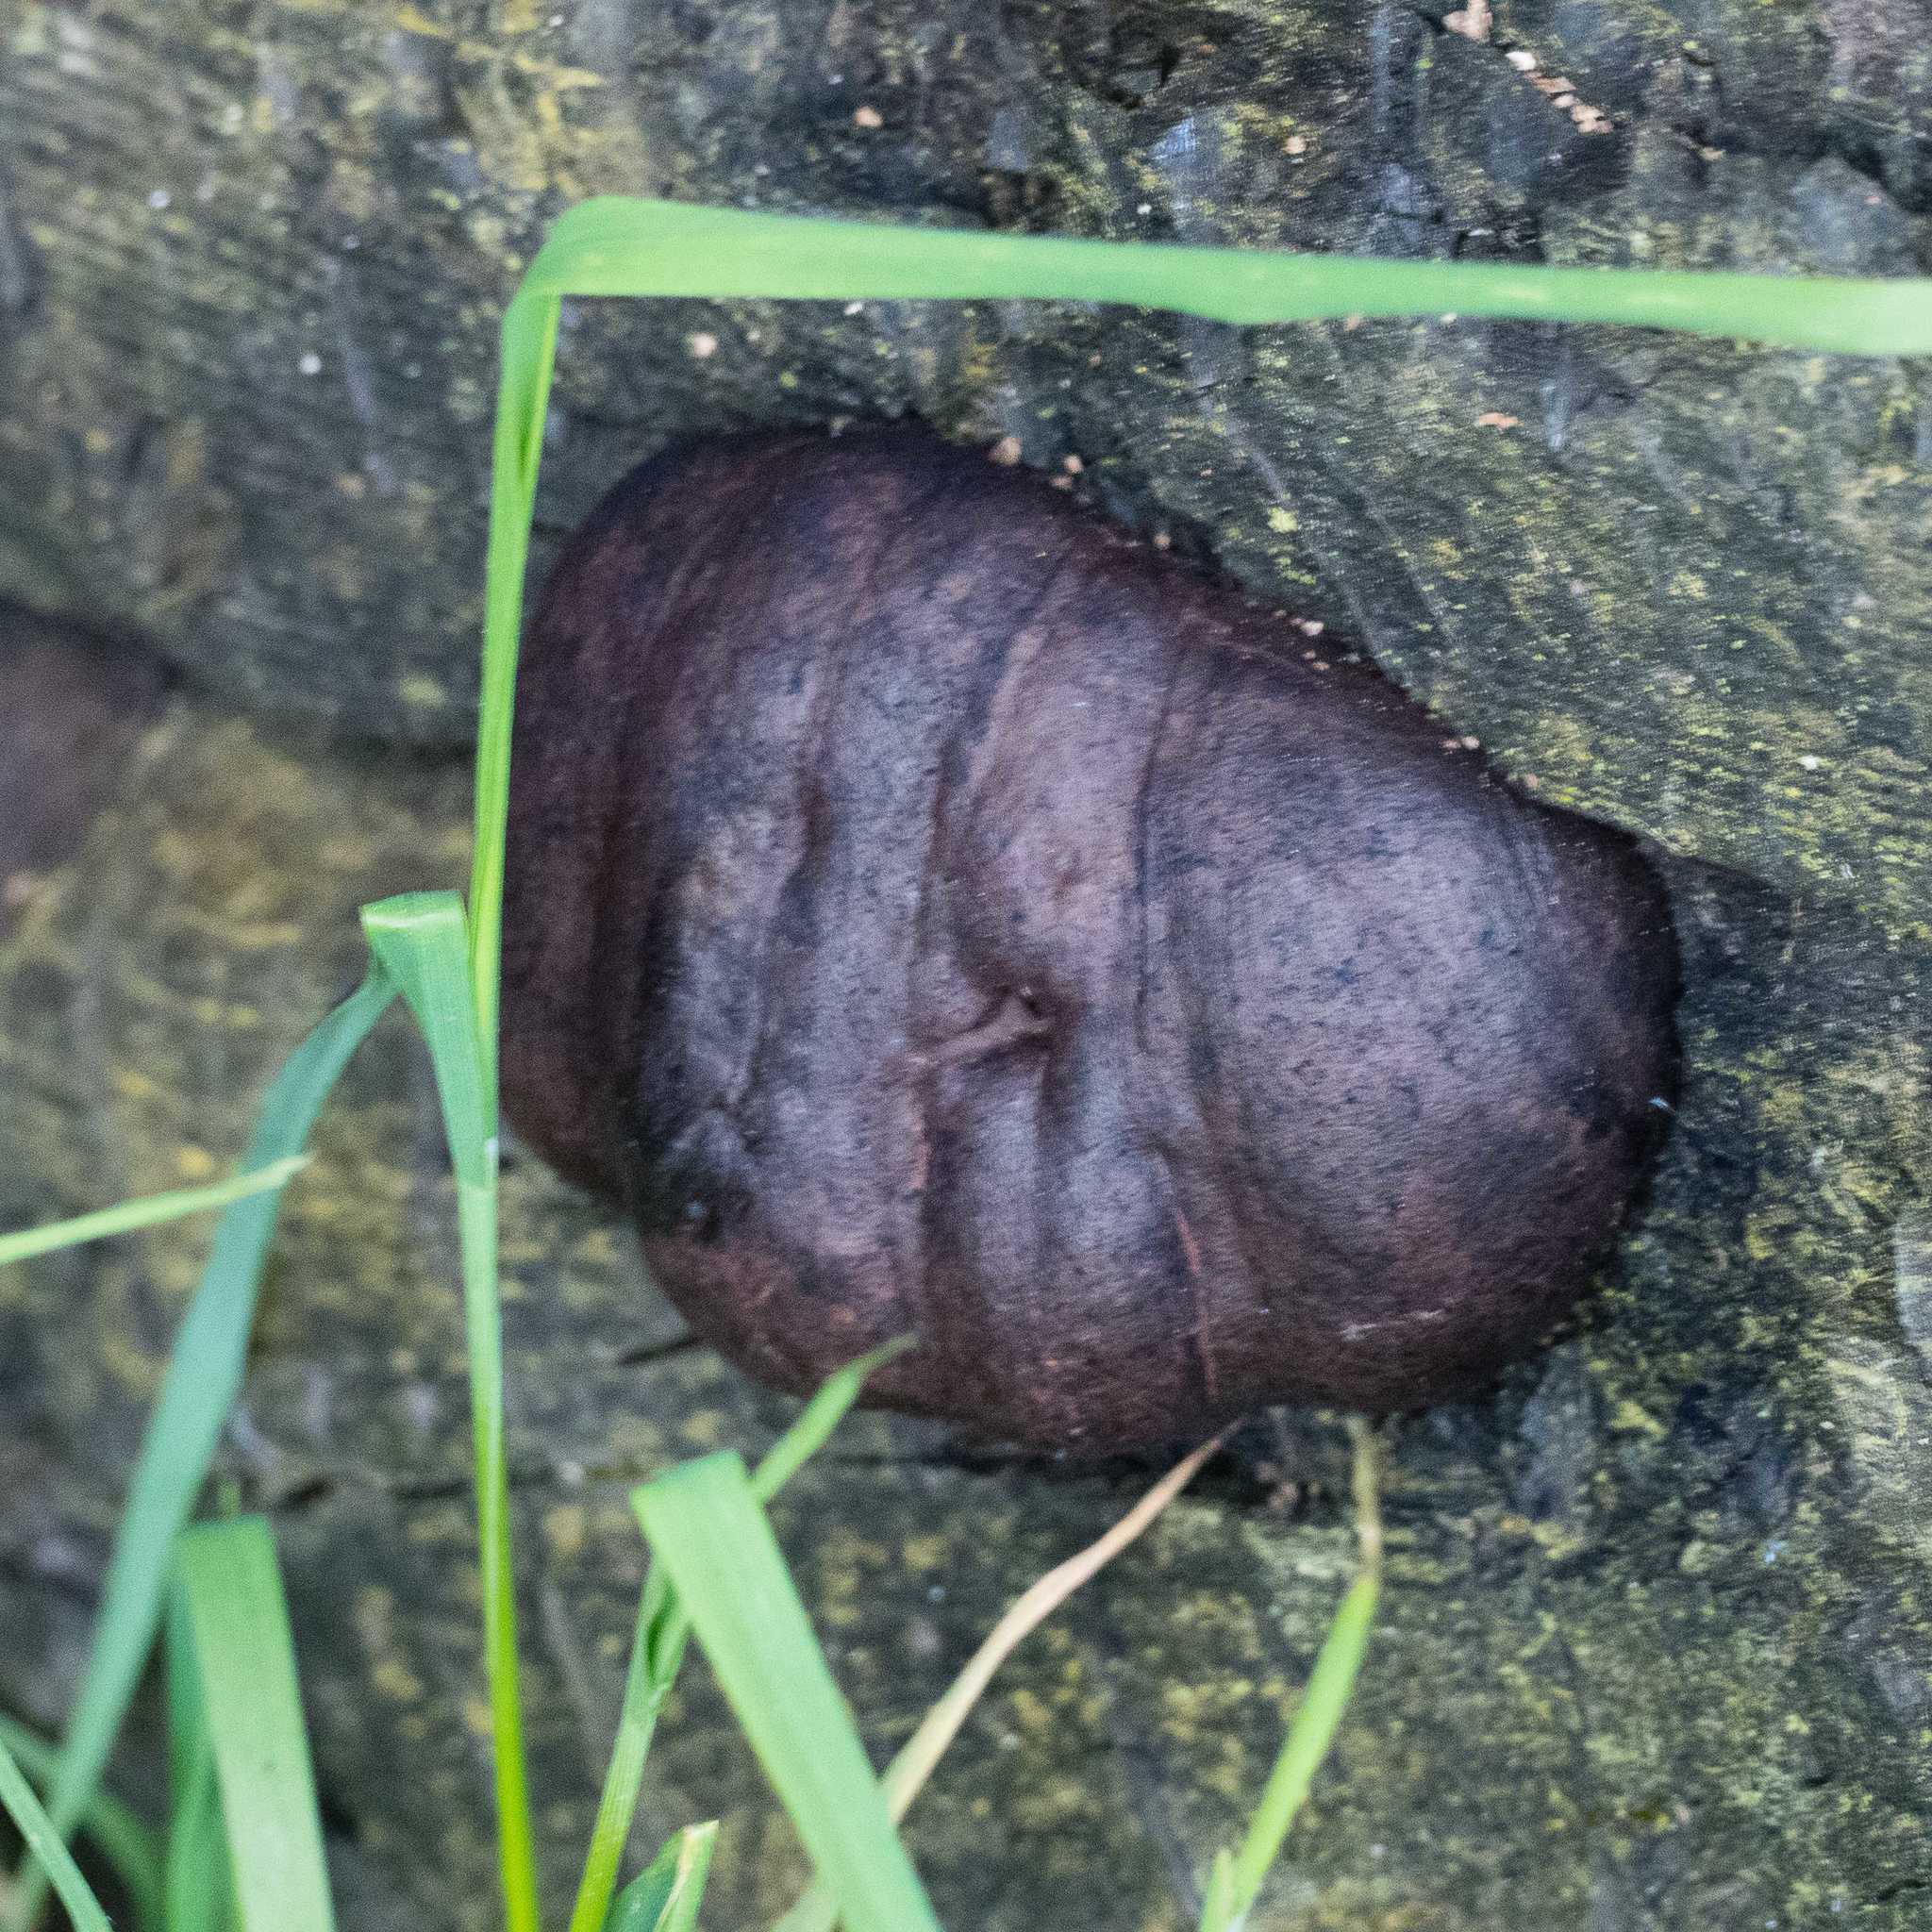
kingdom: Fungi
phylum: Ascomycota
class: Sordariomycetes
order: Xylariales
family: Hypoxylaceae
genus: Daldinia
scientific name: Daldinia concentrica
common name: Cramp balls
